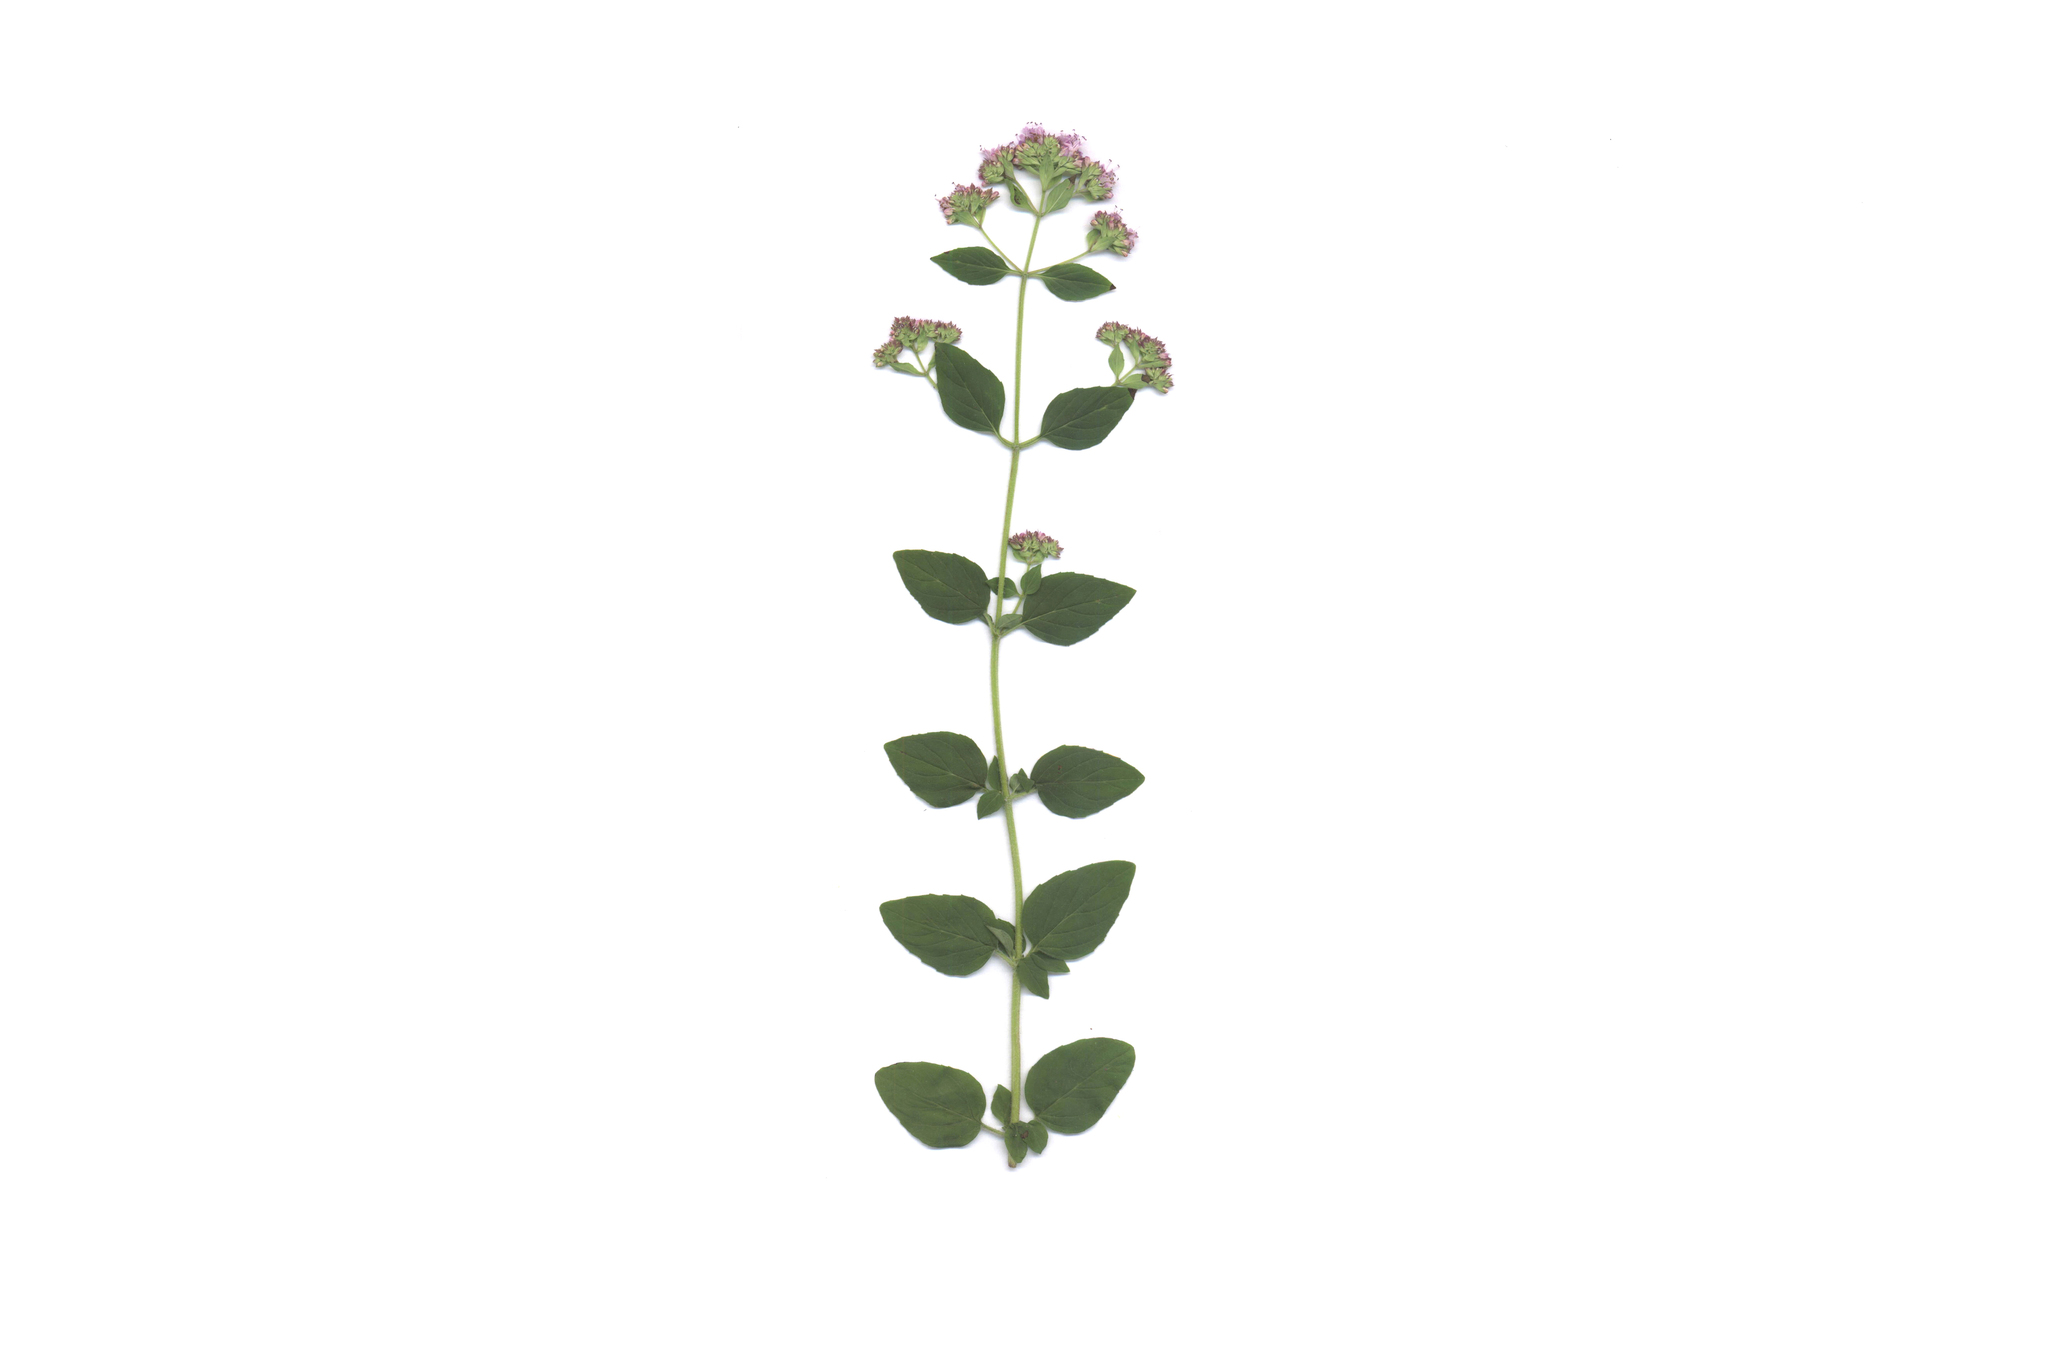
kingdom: Plantae
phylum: Tracheophyta
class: Magnoliopsida
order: Lamiales
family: Lamiaceae
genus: Origanum
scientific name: Origanum vulgare
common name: Wild marjoram
